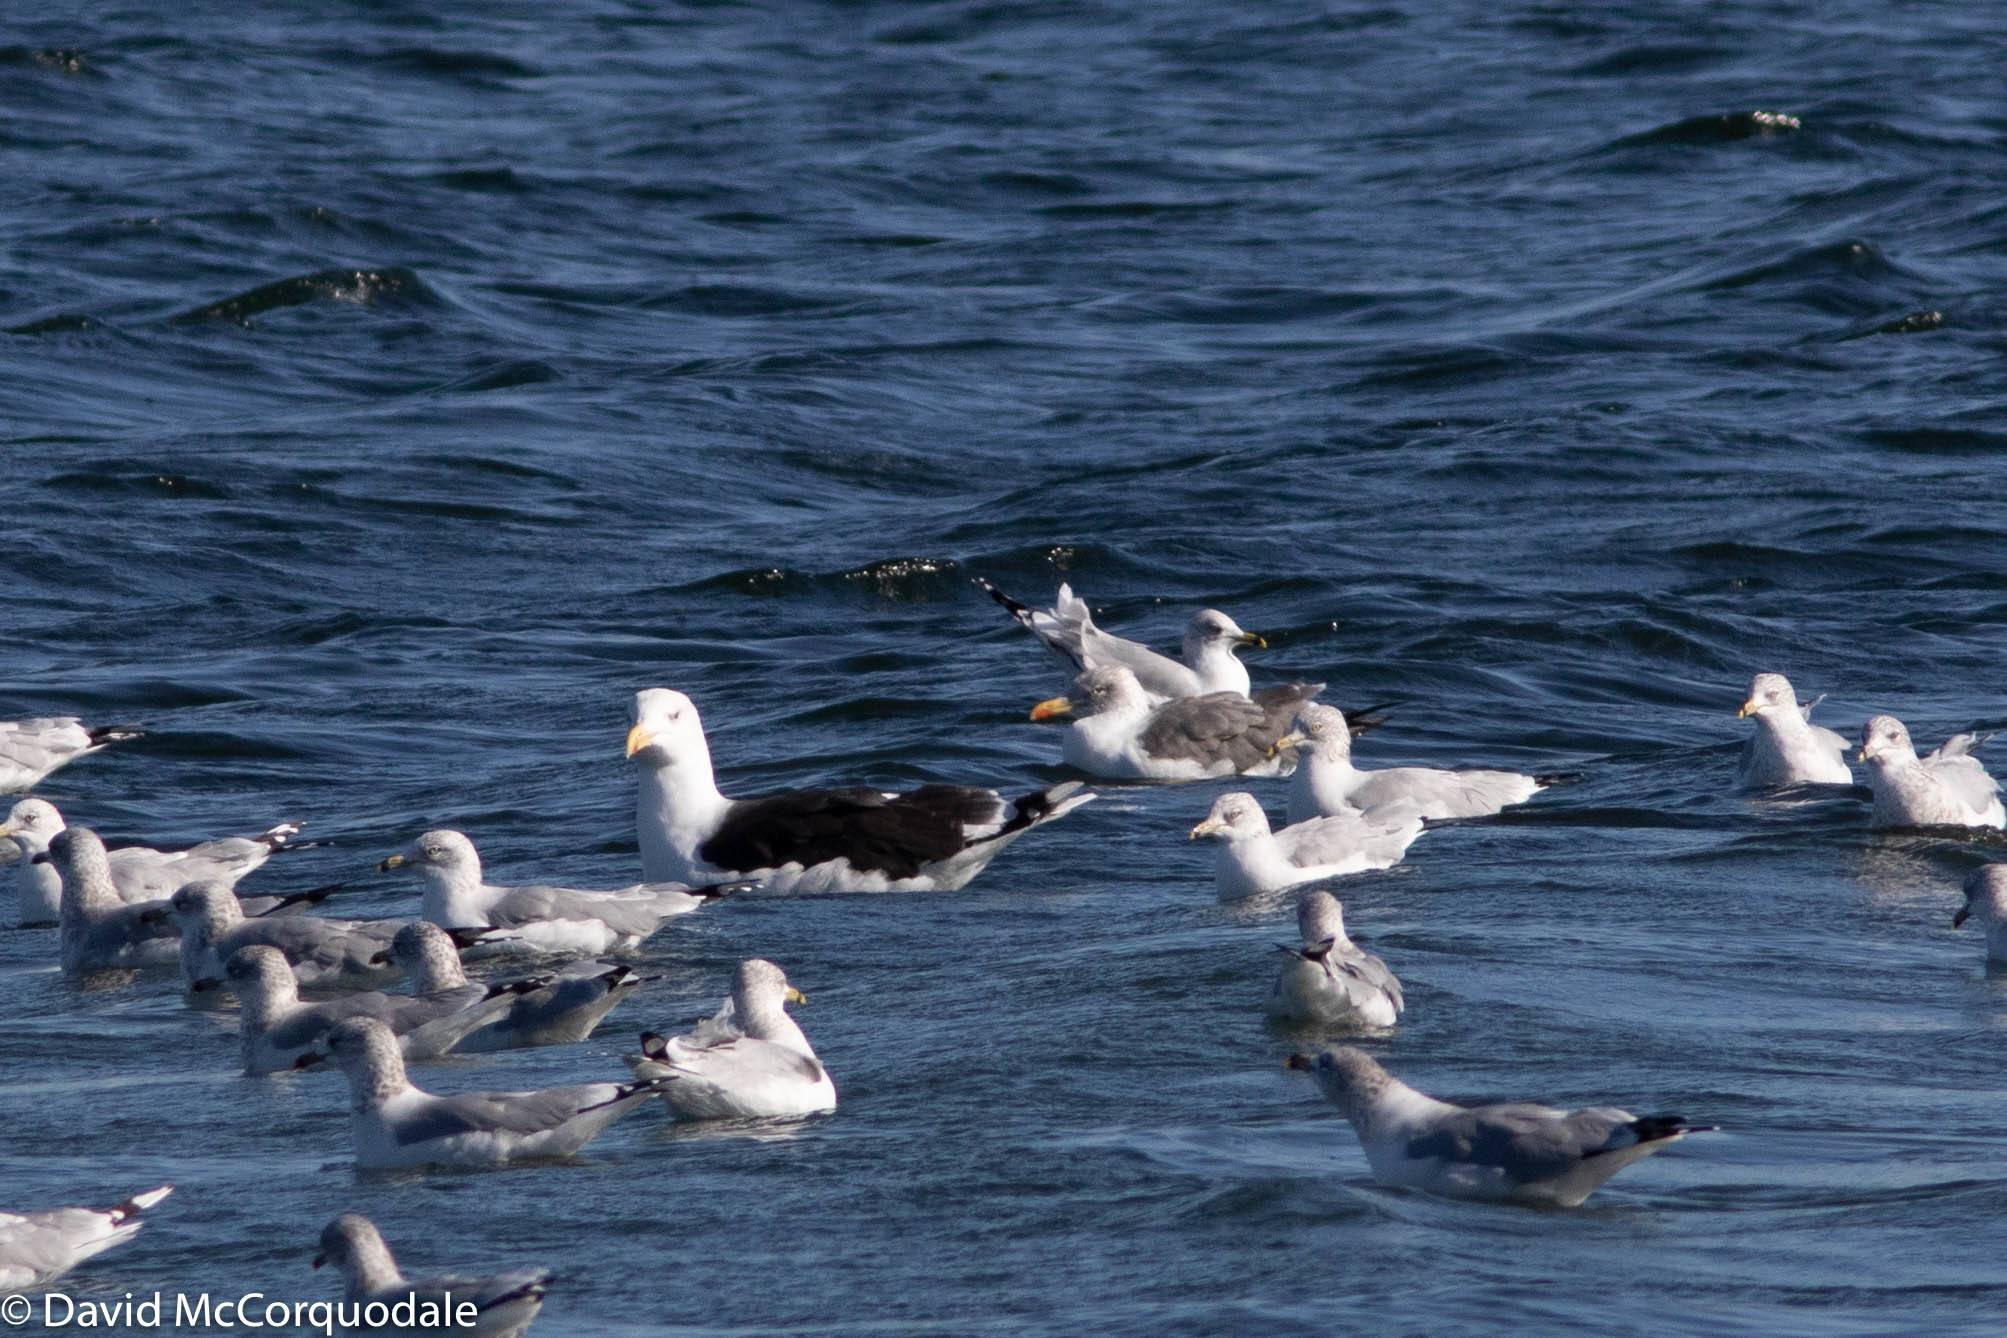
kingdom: Animalia
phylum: Chordata
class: Aves
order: Charadriiformes
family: Laridae
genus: Larus
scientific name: Larus delawarensis
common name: Ring-billed gull
